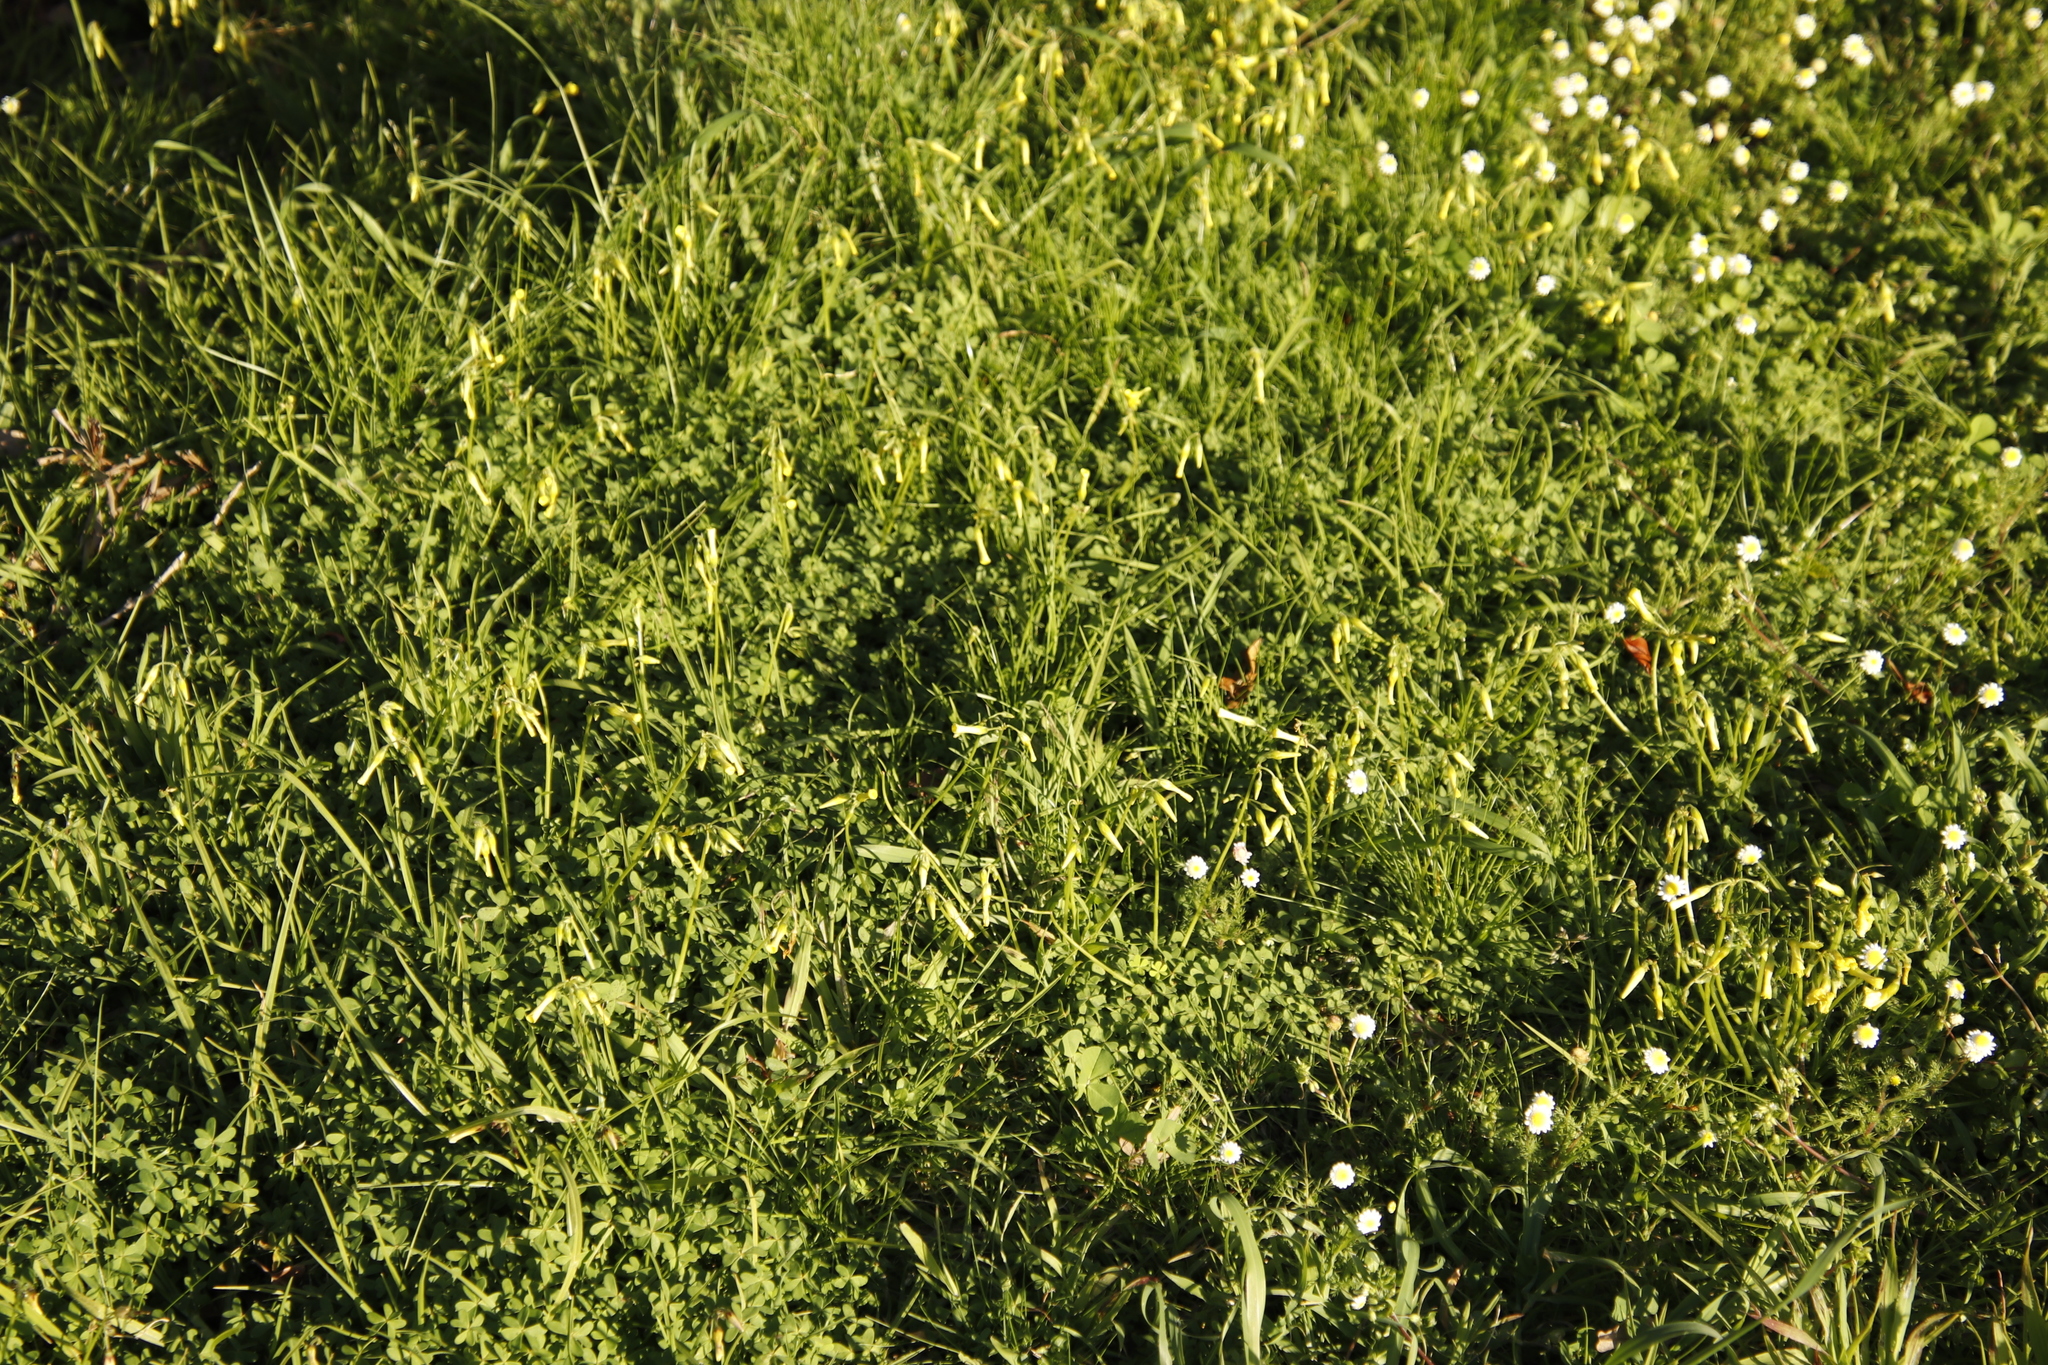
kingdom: Plantae
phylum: Tracheophyta
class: Magnoliopsida
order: Oxalidales
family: Oxalidaceae
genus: Oxalis
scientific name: Oxalis pes-caprae
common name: Bermuda-buttercup
